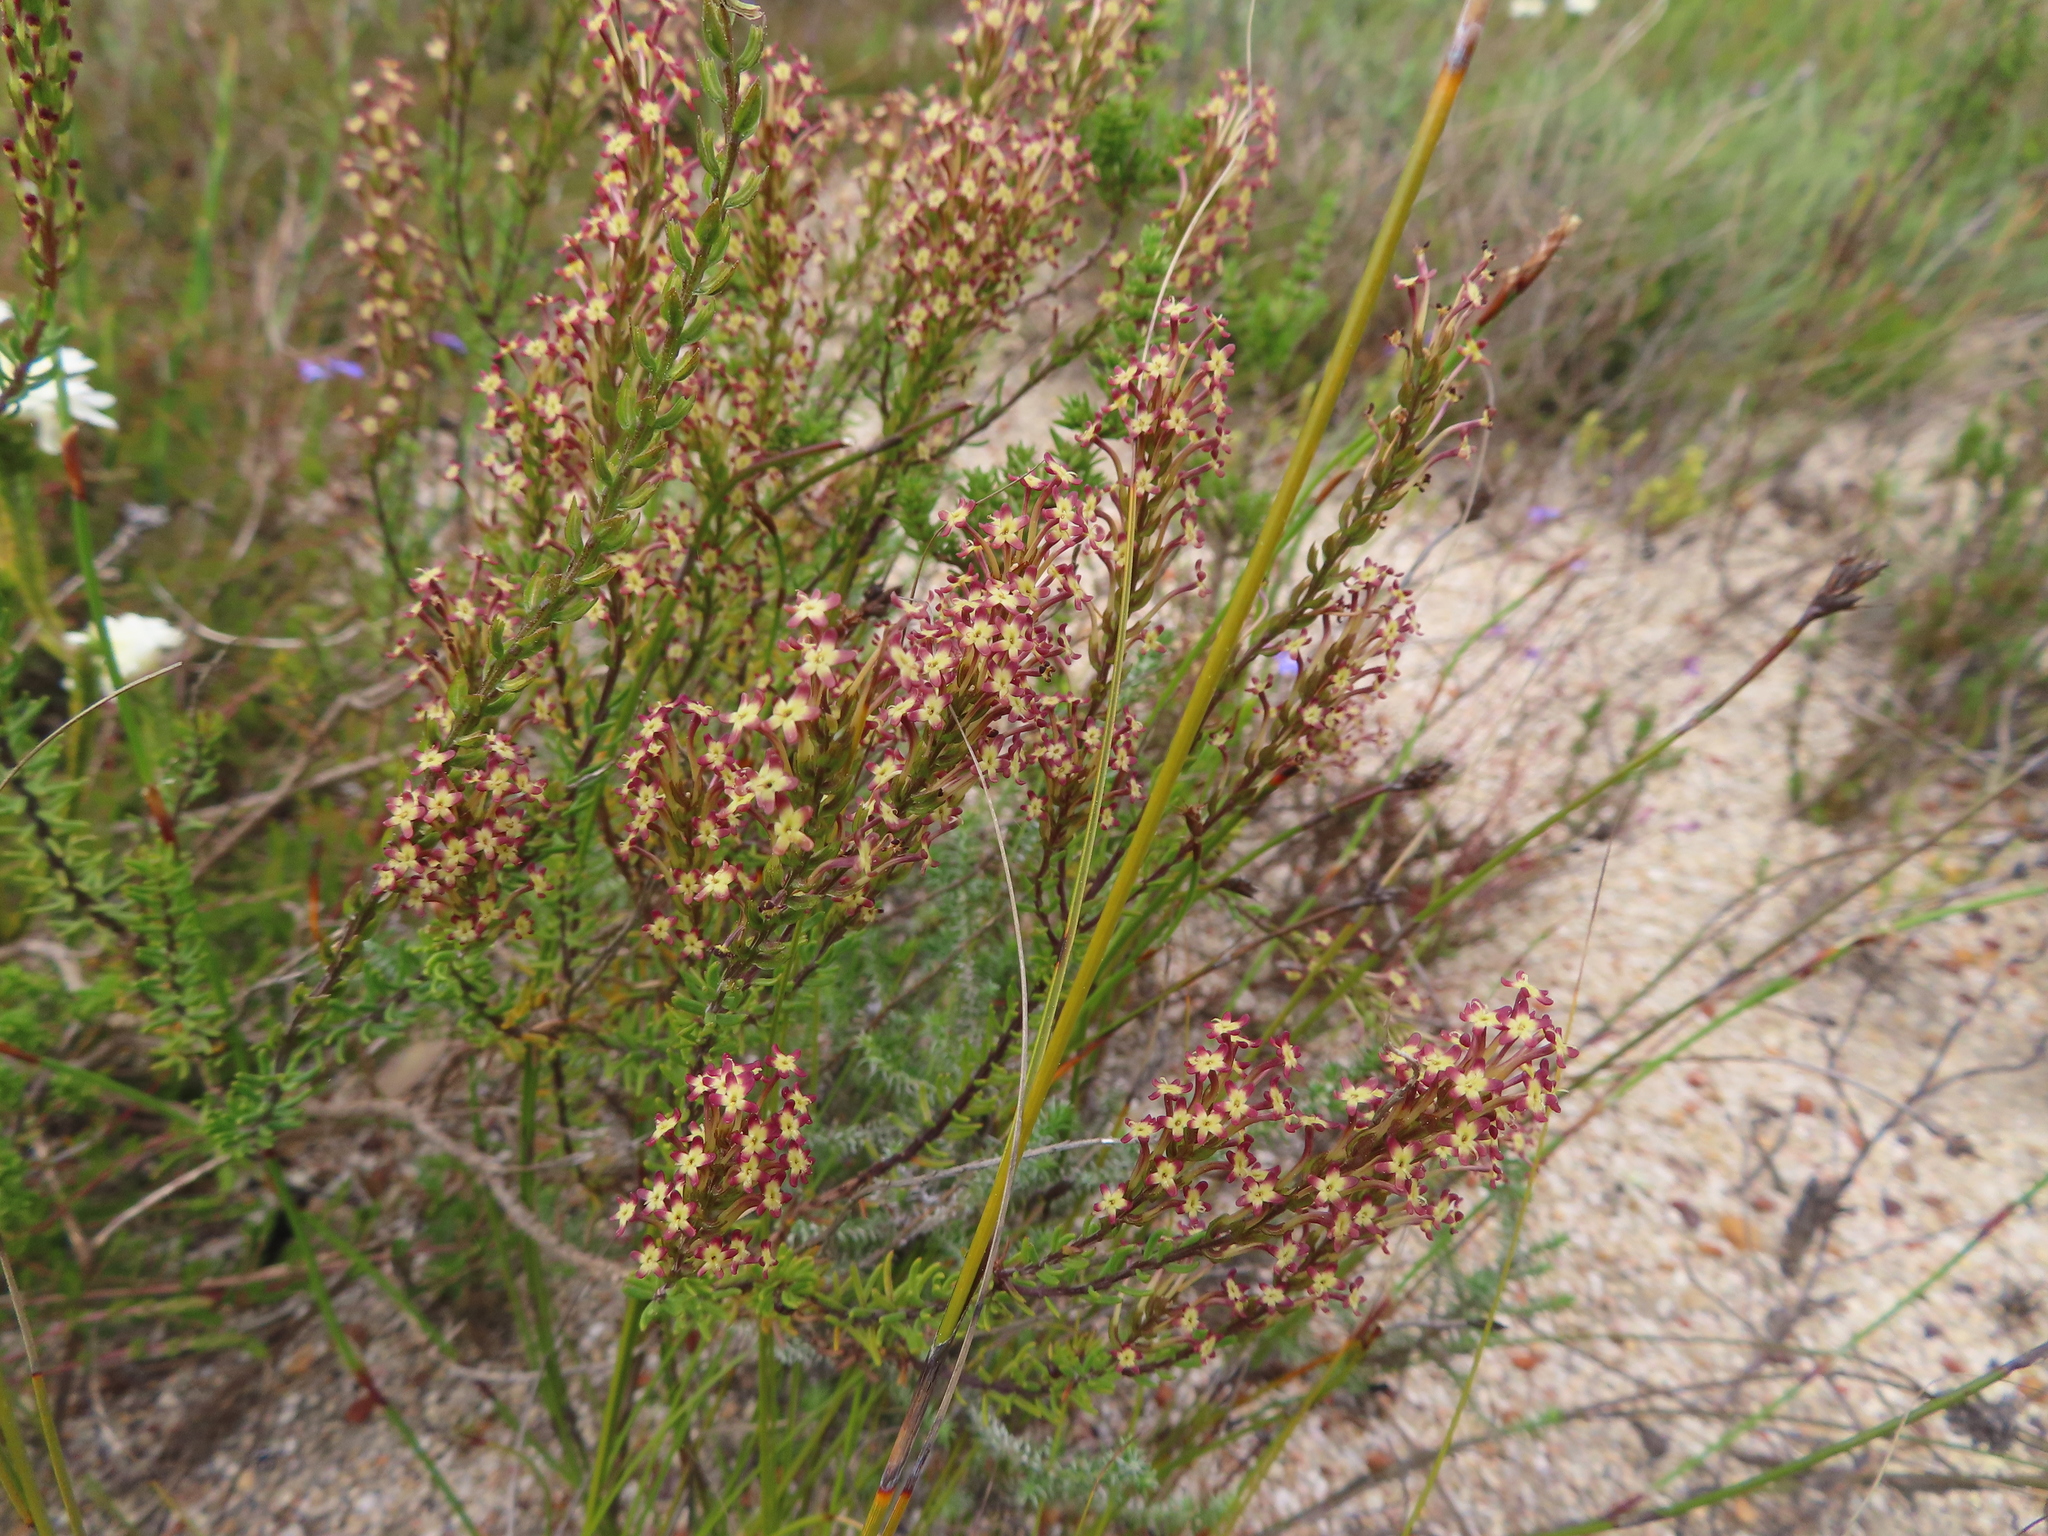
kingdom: Plantae
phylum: Tracheophyta
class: Magnoliopsida
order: Lamiales
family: Scrophulariaceae
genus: Microdon
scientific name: Microdon dubius
